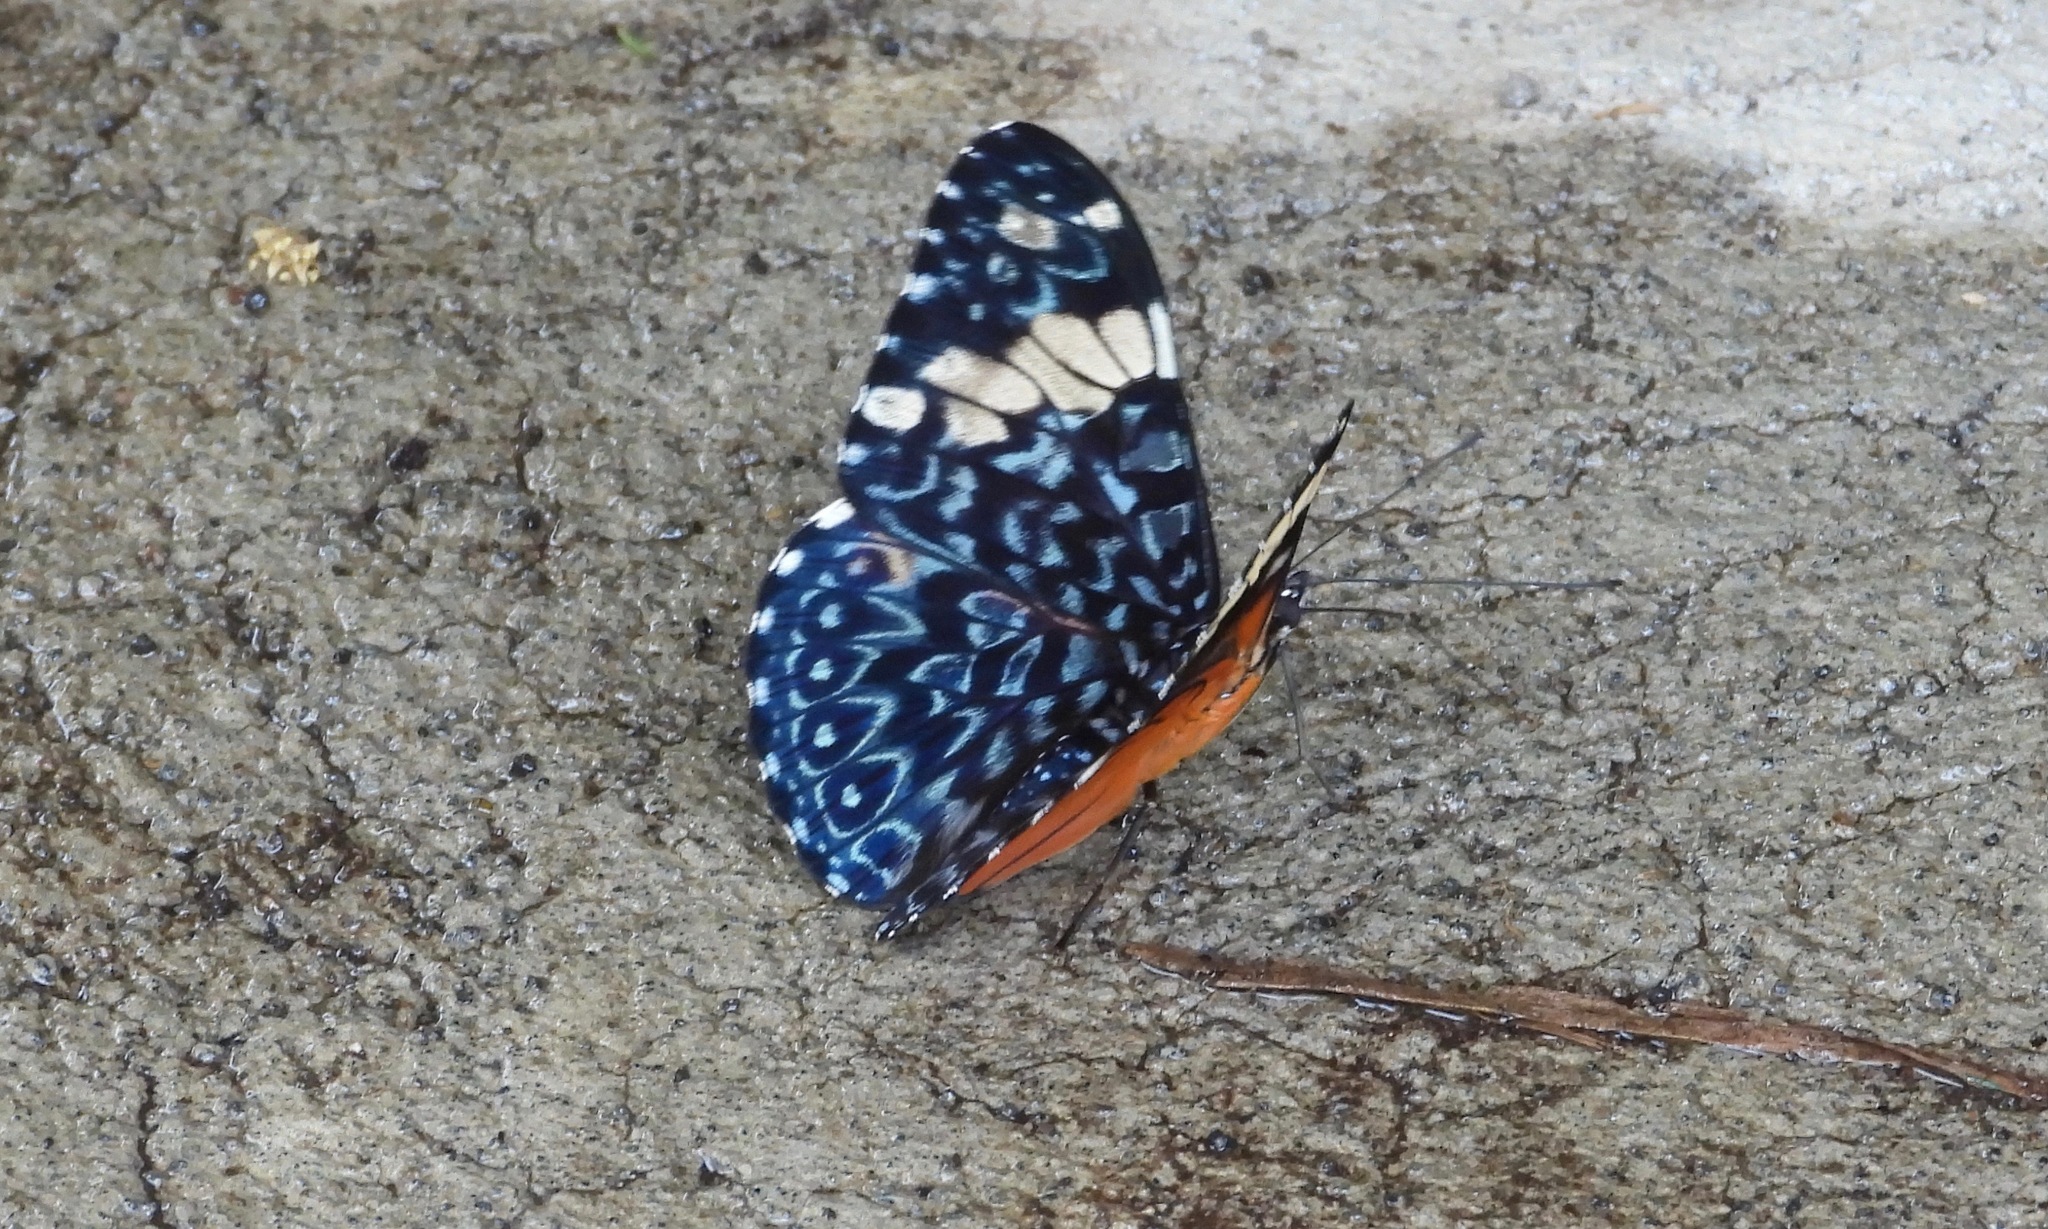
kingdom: Animalia
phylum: Arthropoda
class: Insecta
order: Lepidoptera
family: Nymphalidae
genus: Hamadryas
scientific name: Hamadryas amphinome
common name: Red cracker
